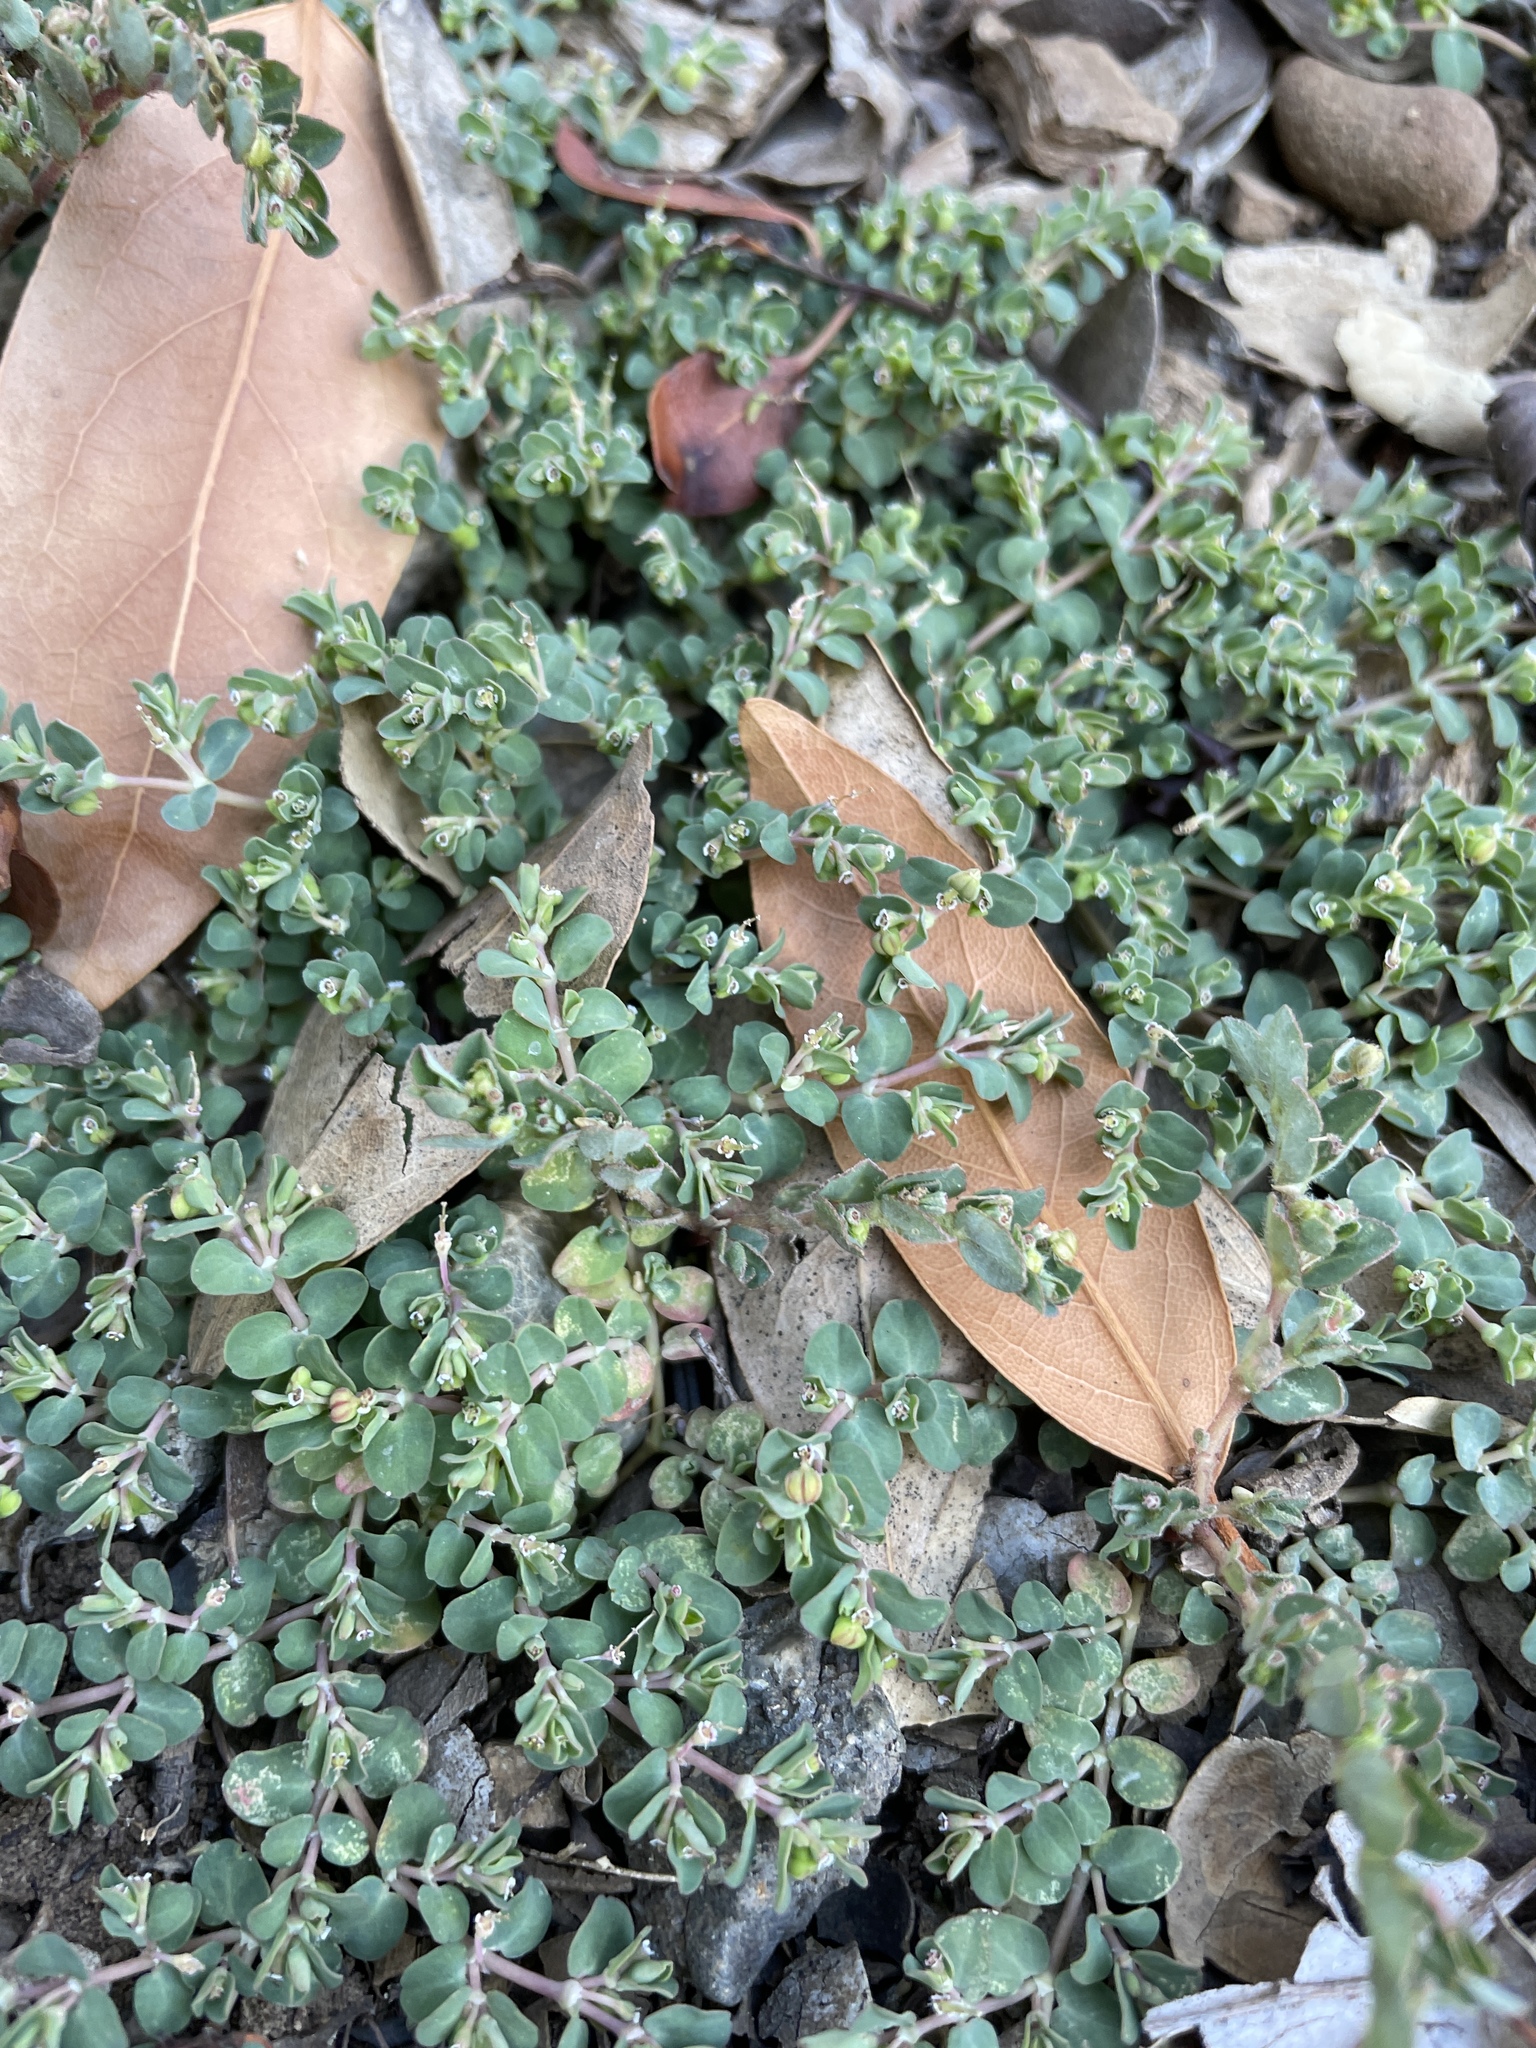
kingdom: Plantae
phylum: Tracheophyta
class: Magnoliopsida
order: Malpighiales
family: Euphorbiaceae
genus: Euphorbia
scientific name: Euphorbia serpens
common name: Matted sandmat
